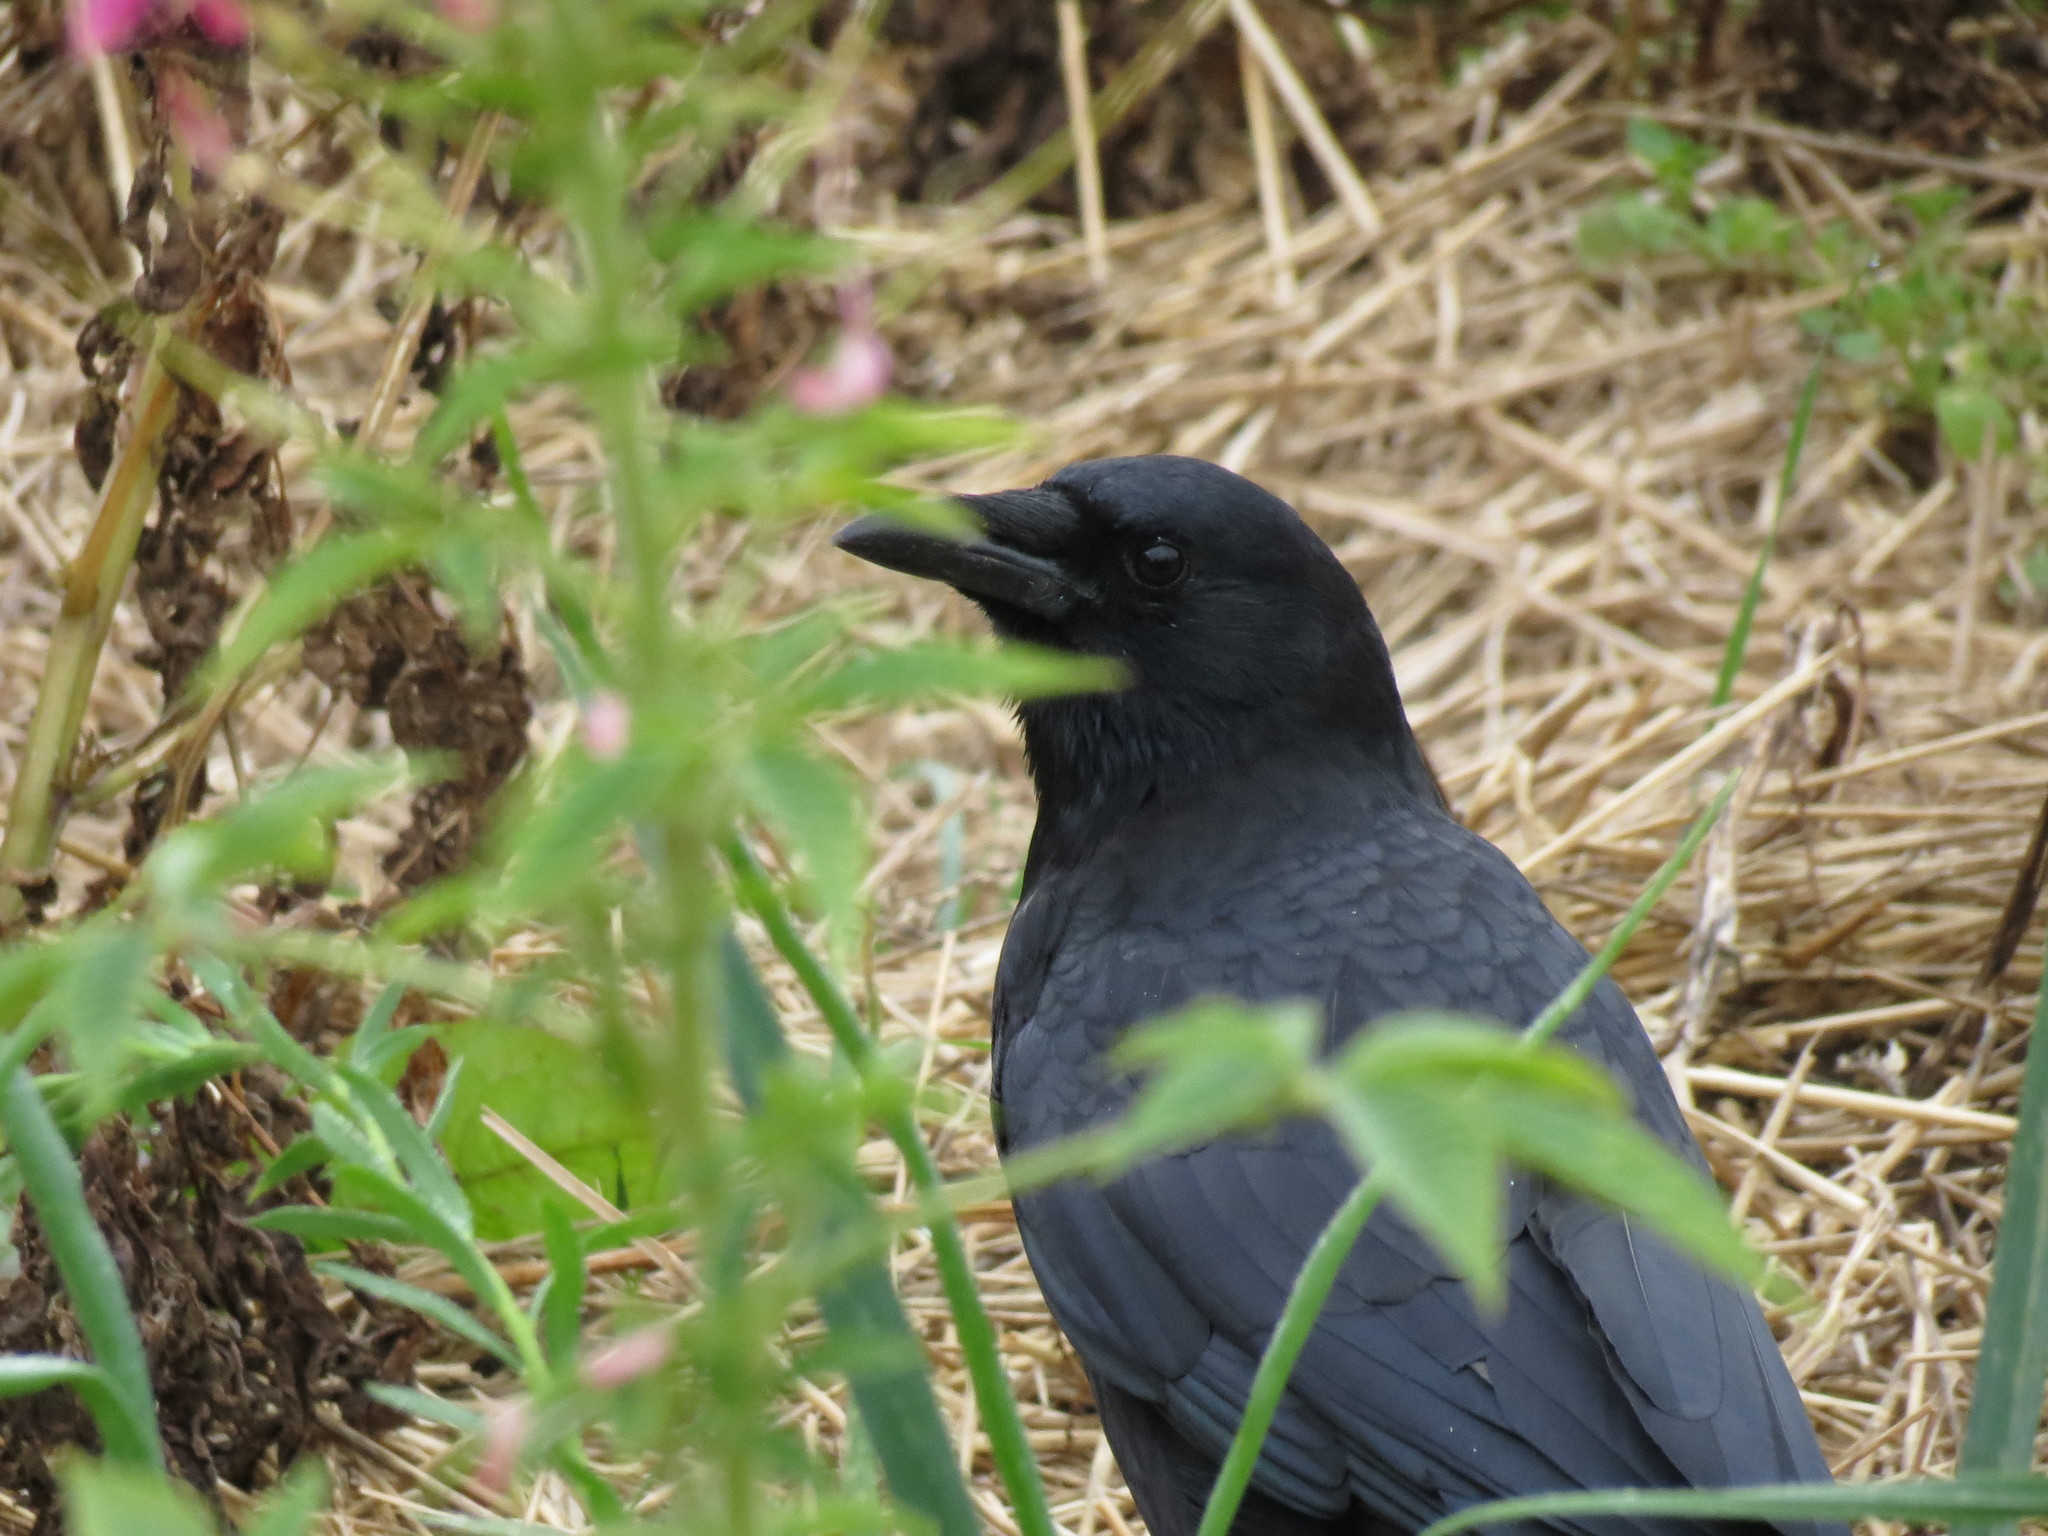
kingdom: Animalia
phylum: Chordata
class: Aves
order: Passeriformes
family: Corvidae
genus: Corvus
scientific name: Corvus brachyrhynchos
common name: American crow
